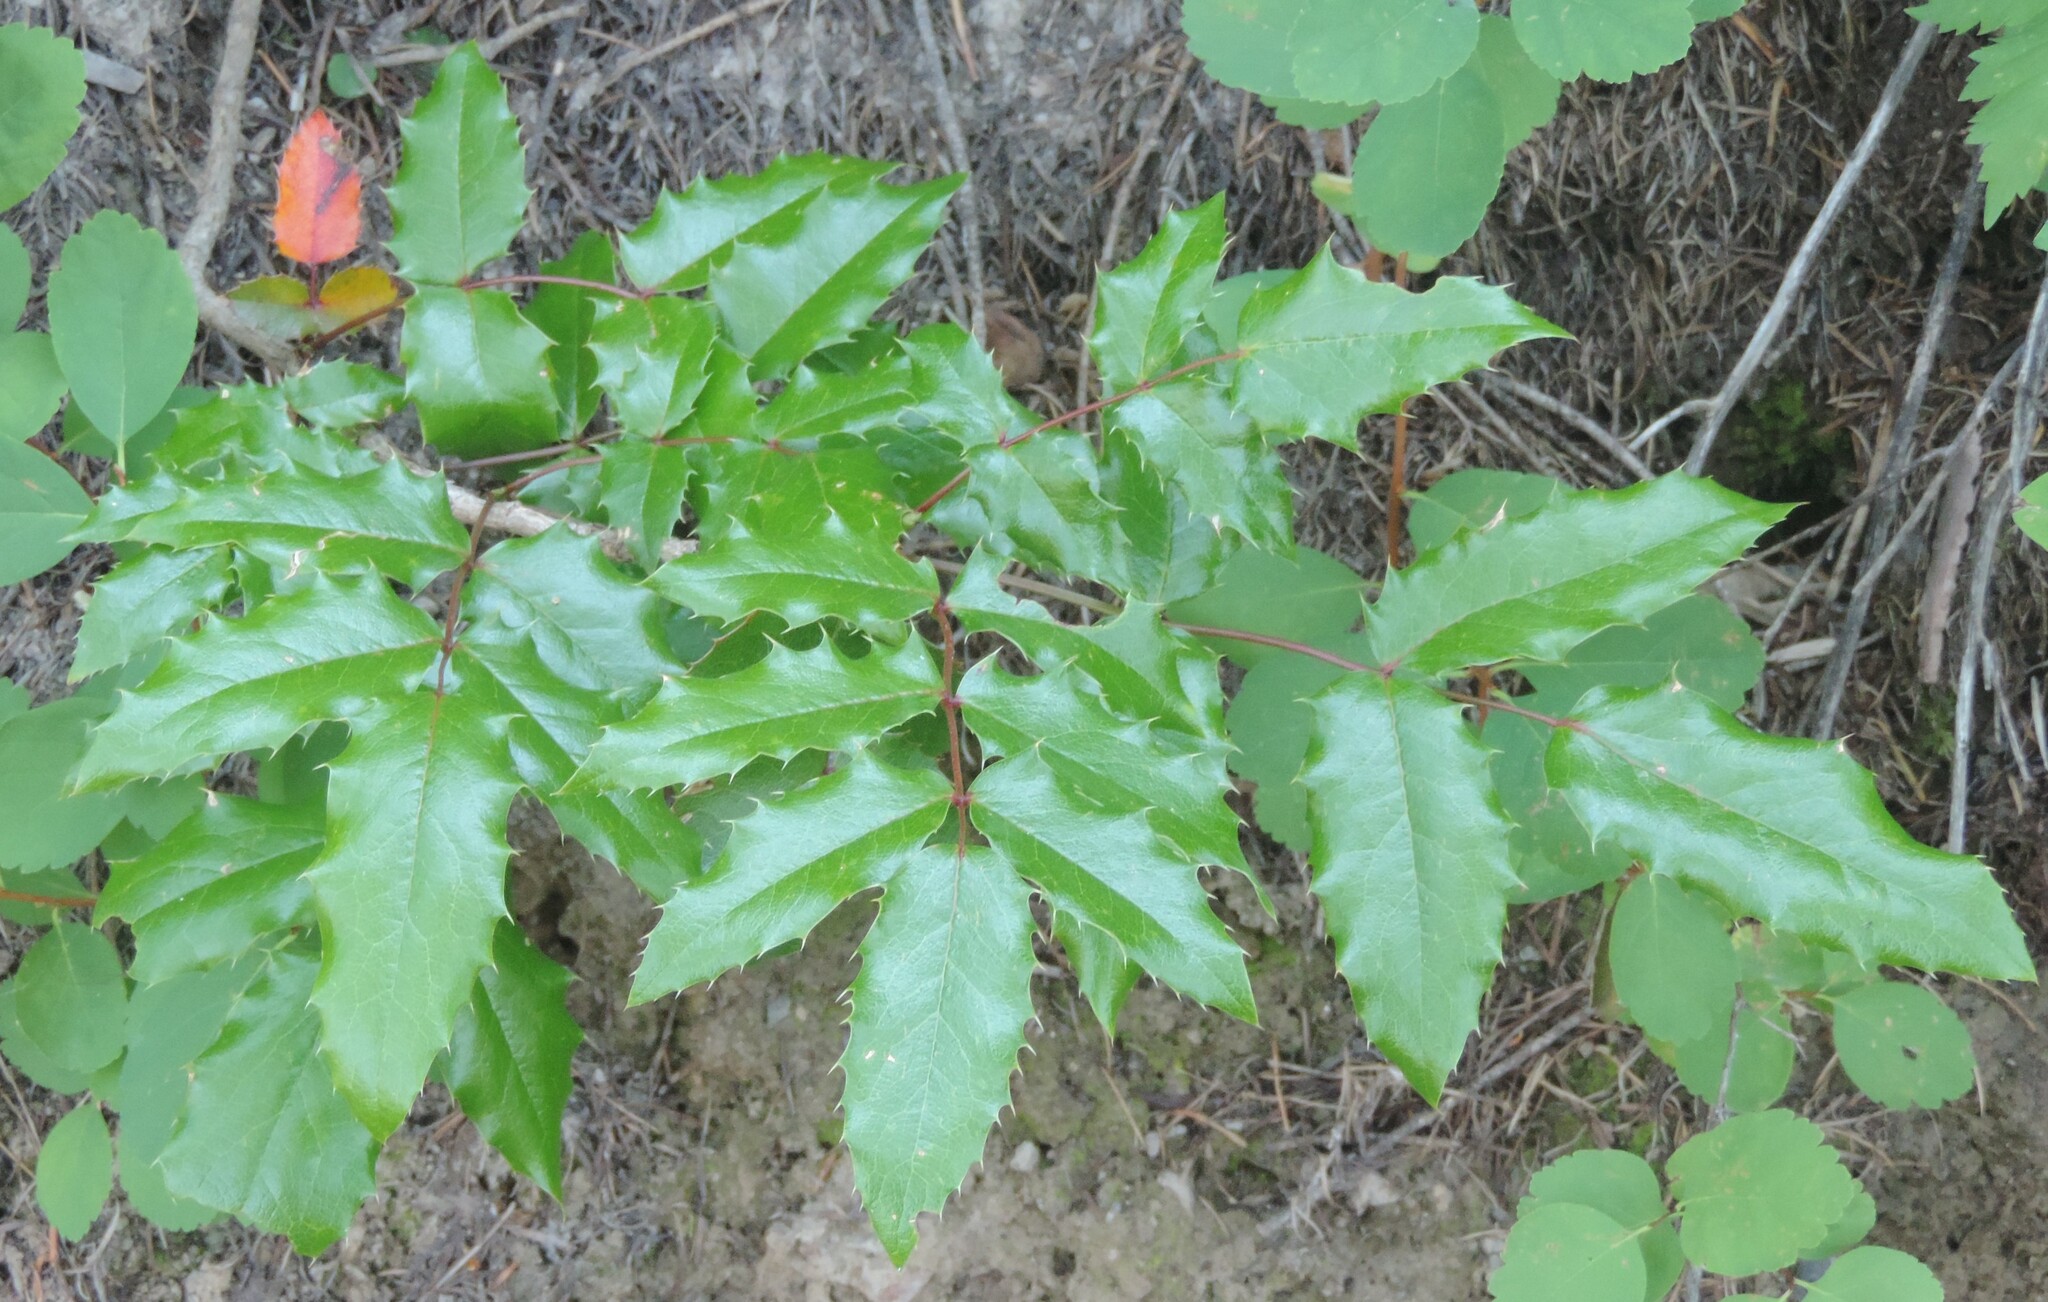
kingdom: Plantae
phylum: Tracheophyta
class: Magnoliopsida
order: Ranunculales
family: Berberidaceae
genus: Mahonia
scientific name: Mahonia aquifolium
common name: Oregon-grape
